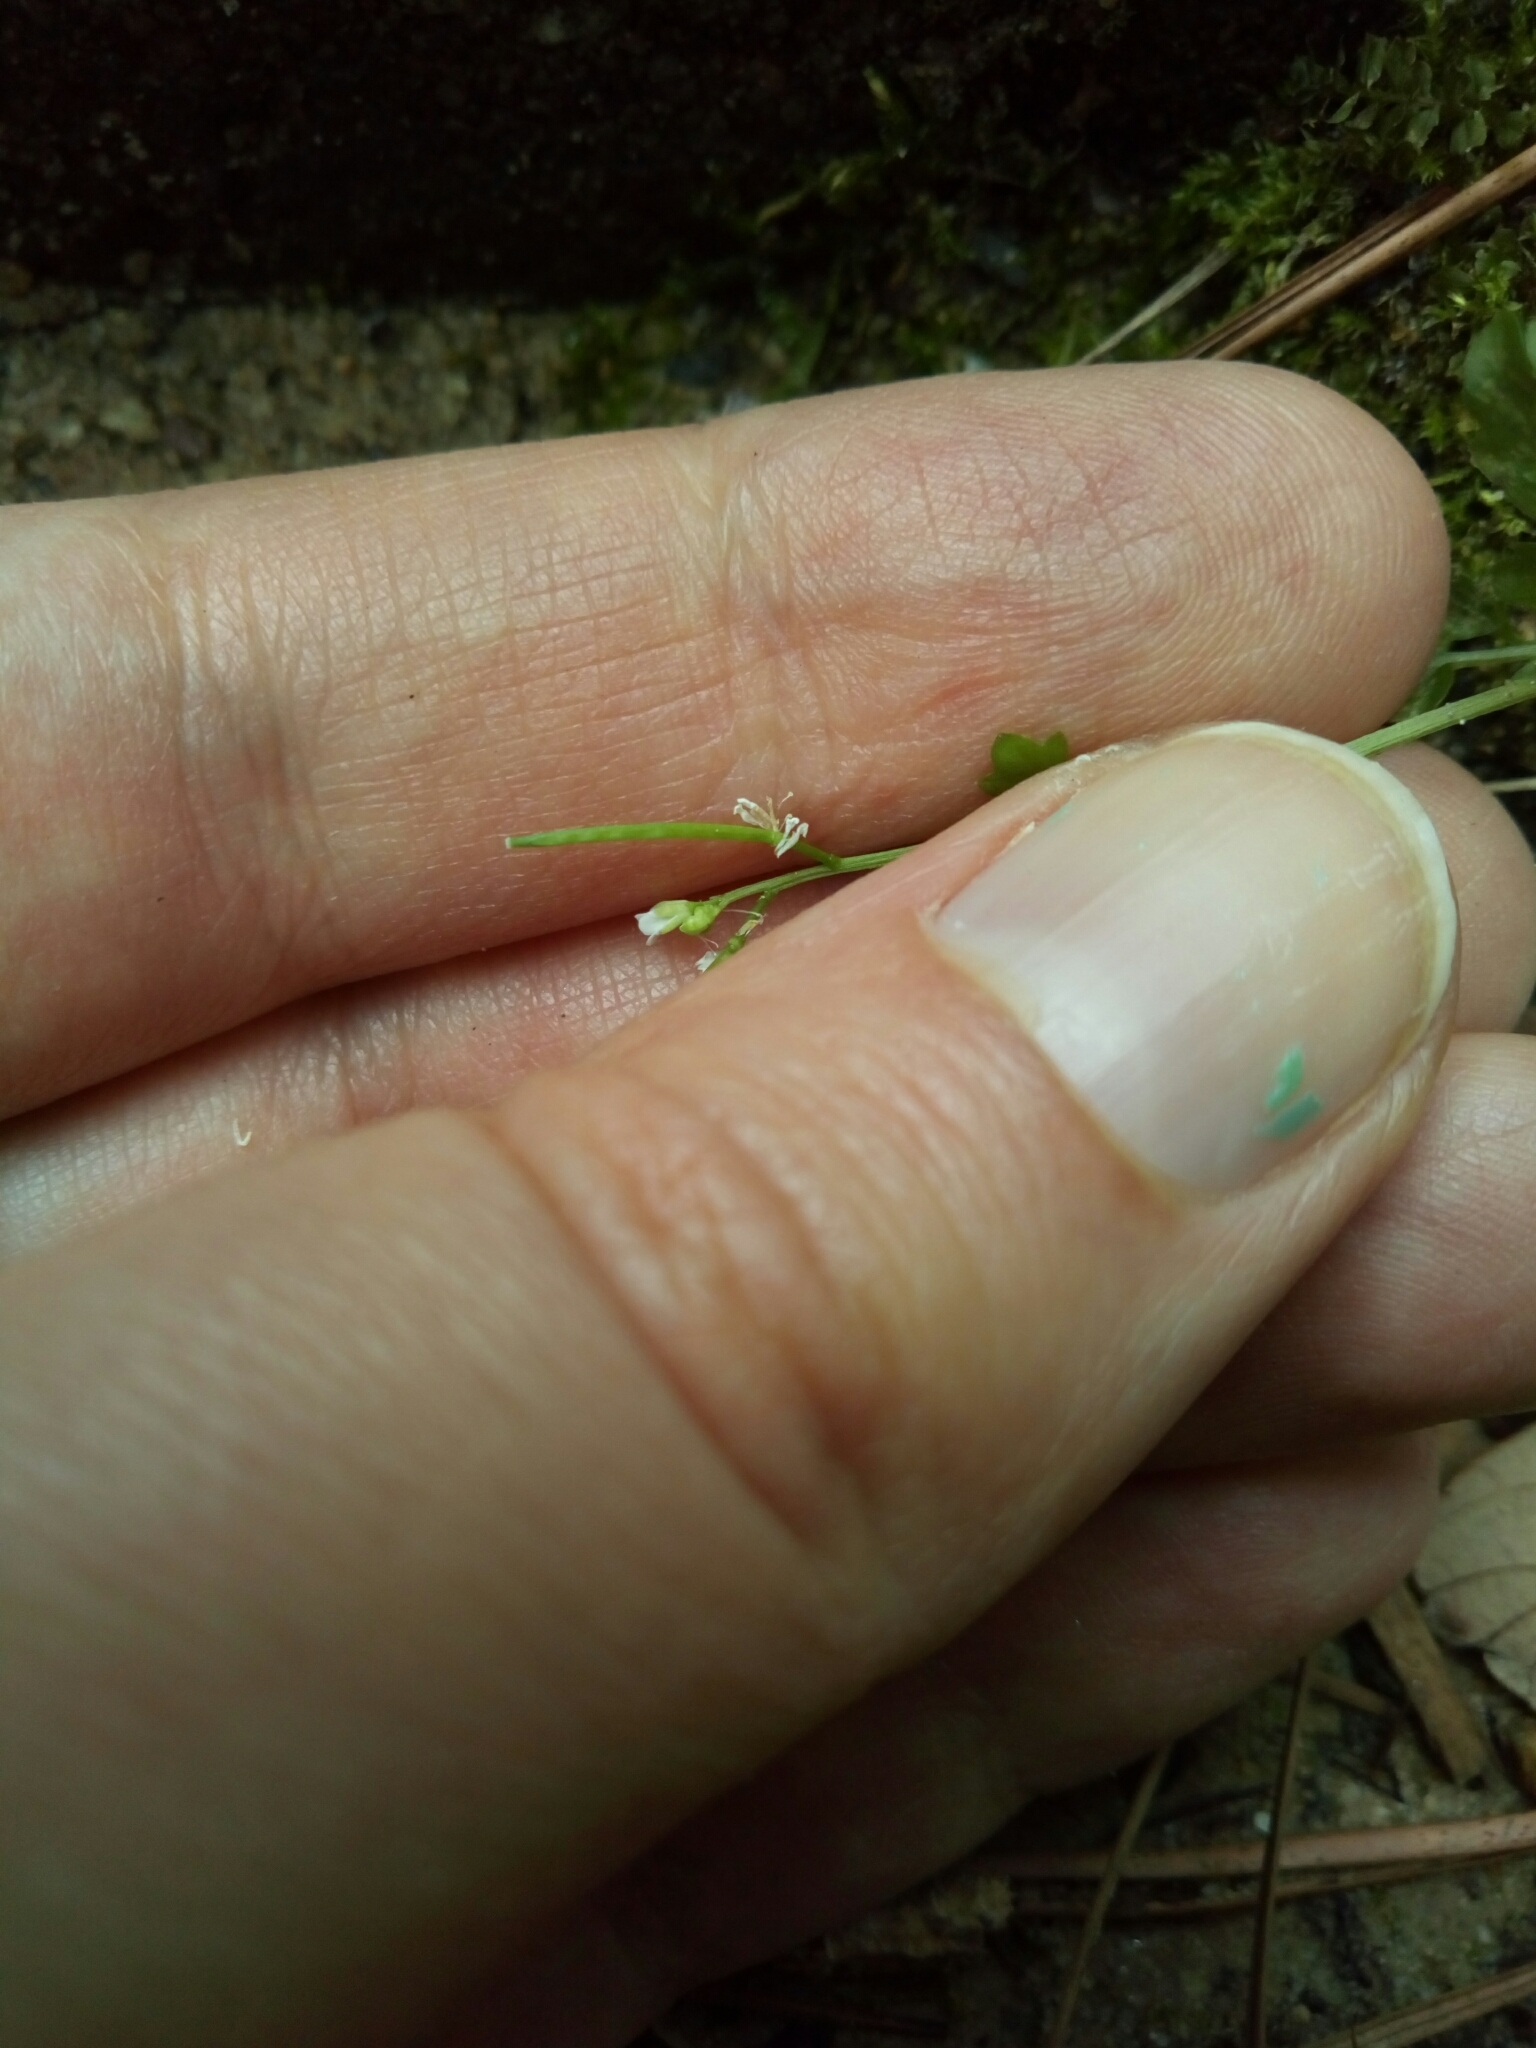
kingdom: Plantae
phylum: Tracheophyta
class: Magnoliopsida
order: Brassicales
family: Brassicaceae
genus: Cardamine
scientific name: Cardamine occulta
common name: Asian wavy bittercress
